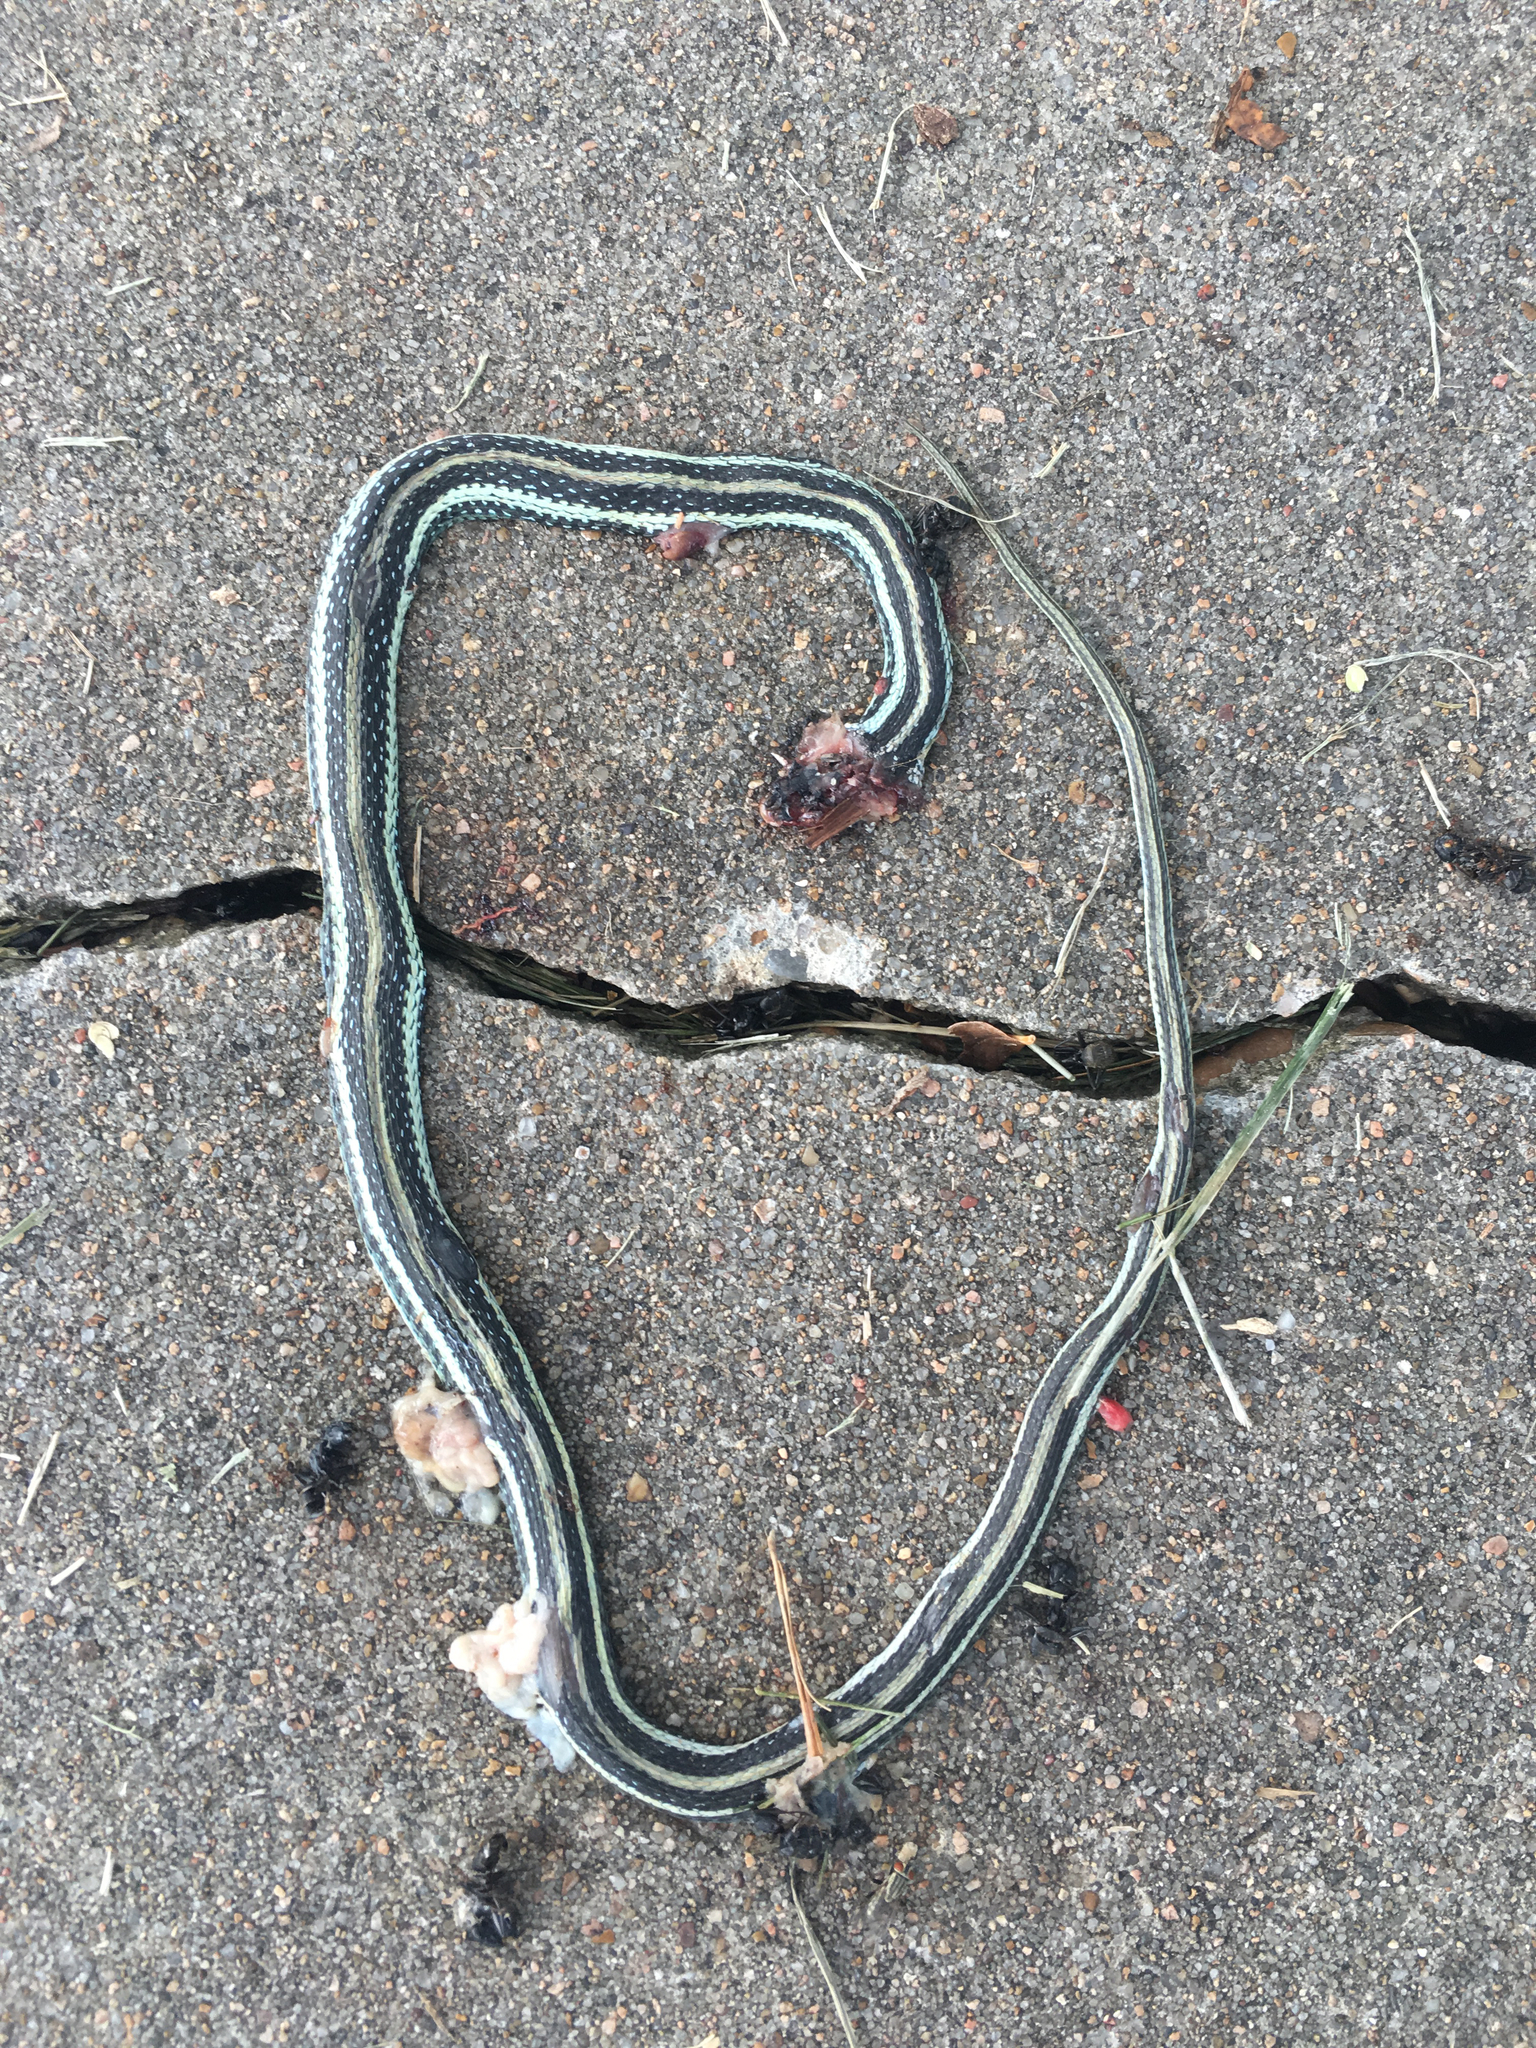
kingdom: Animalia
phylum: Chordata
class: Squamata
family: Colubridae
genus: Thamnophis
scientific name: Thamnophis proximus
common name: Western ribbon snake
